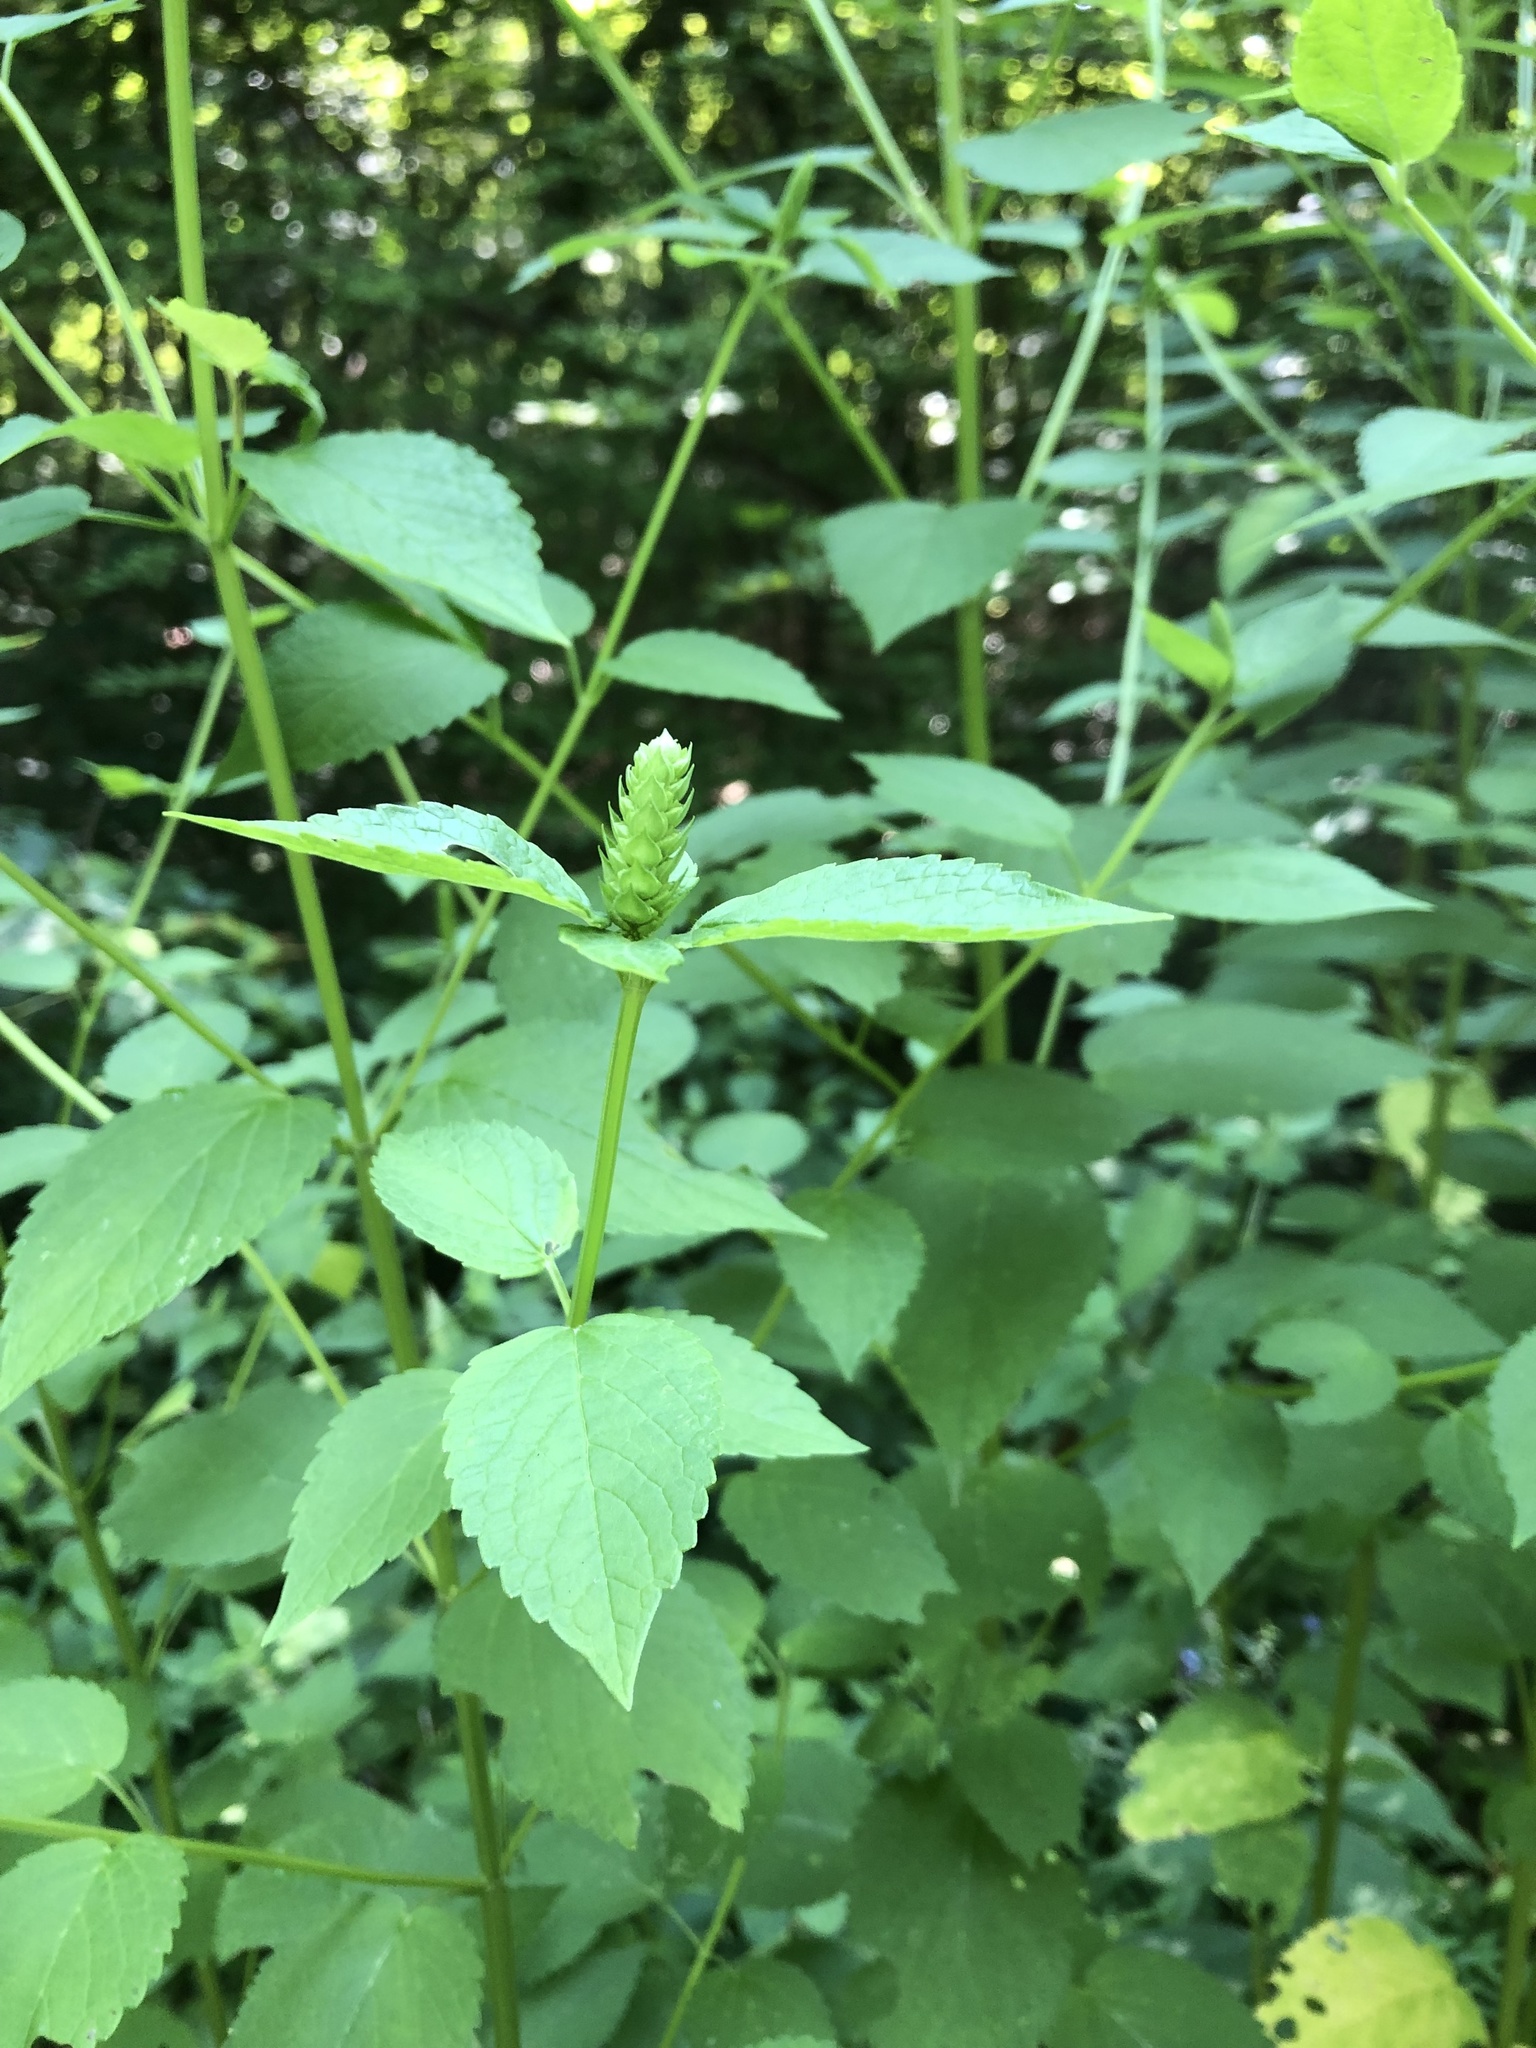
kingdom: Plantae
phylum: Tracheophyta
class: Magnoliopsida
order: Lamiales
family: Lamiaceae
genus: Agastache
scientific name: Agastache nepetoides
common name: Catnip giant hyssop
